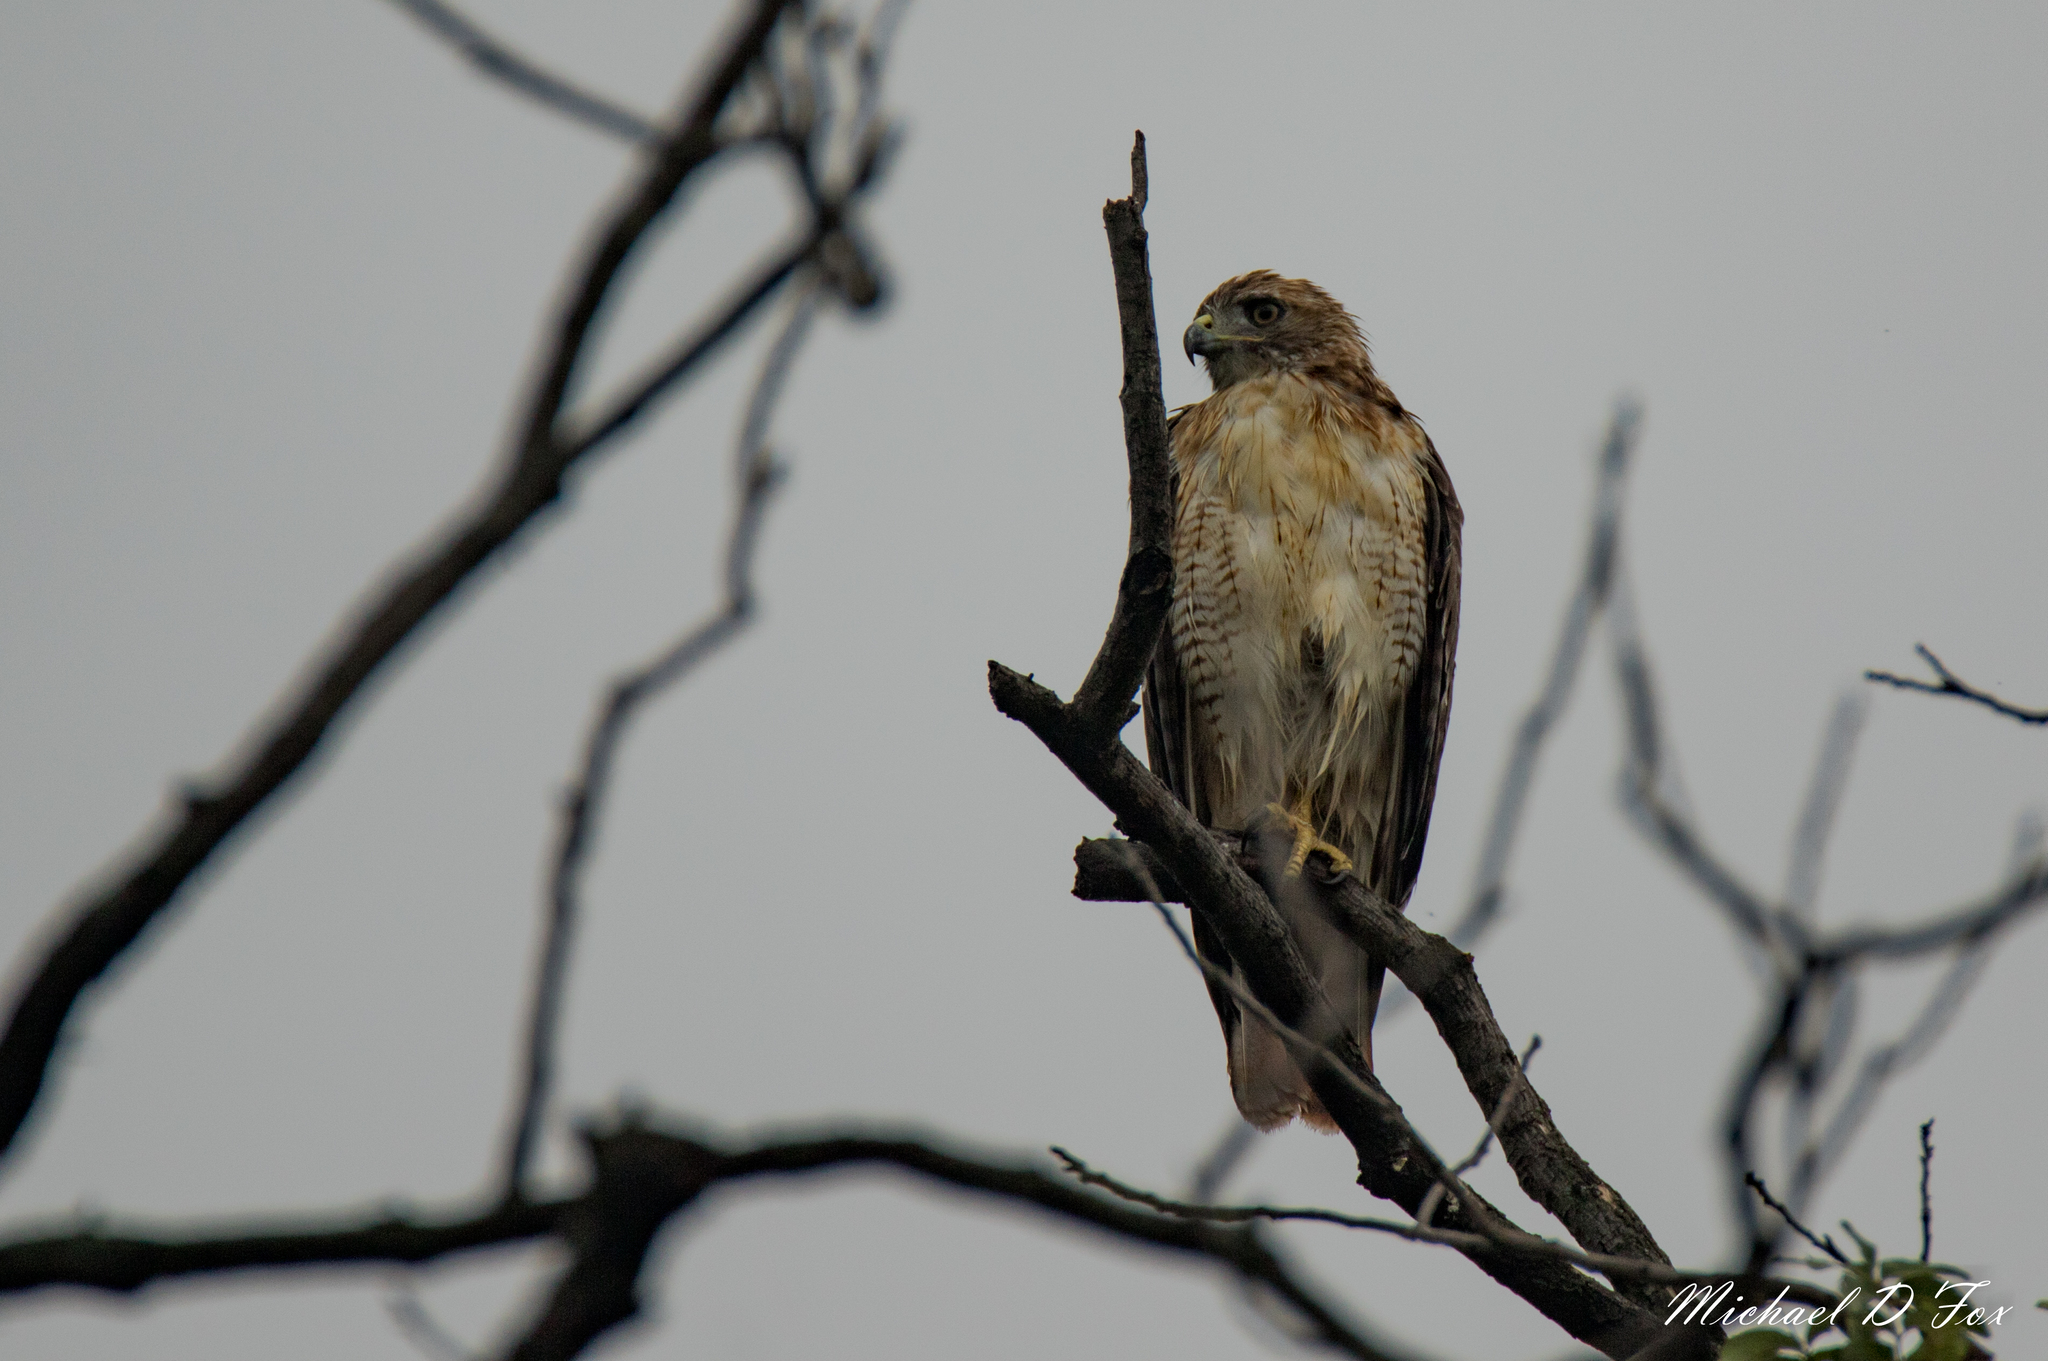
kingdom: Animalia
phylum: Chordata
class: Aves
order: Accipitriformes
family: Accipitridae
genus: Buteo
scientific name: Buteo jamaicensis
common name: Red-tailed hawk
